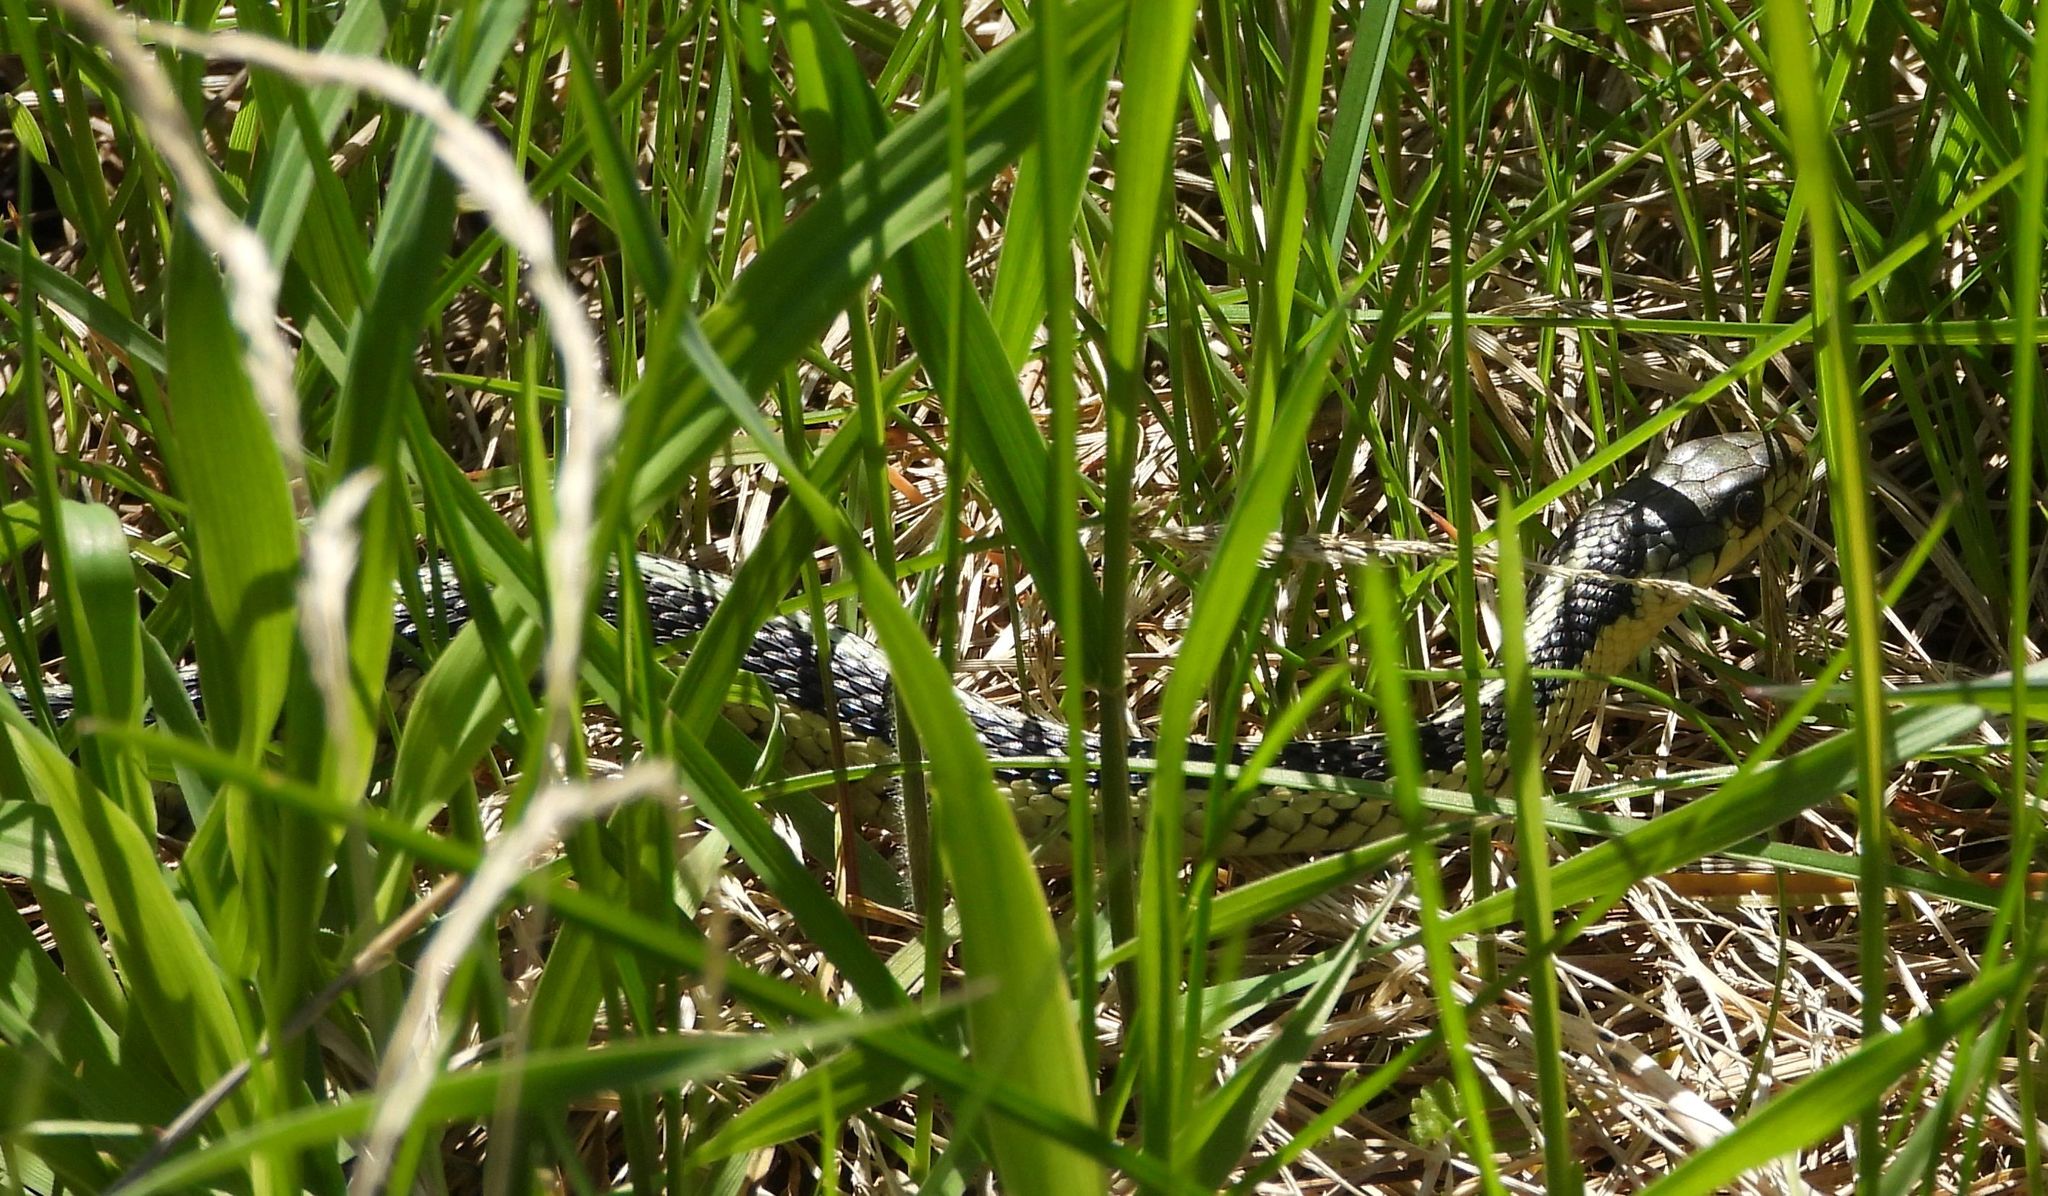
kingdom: Animalia
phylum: Chordata
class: Squamata
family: Colubridae
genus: Thamnophis
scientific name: Thamnophis sirtalis
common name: Common garter snake
